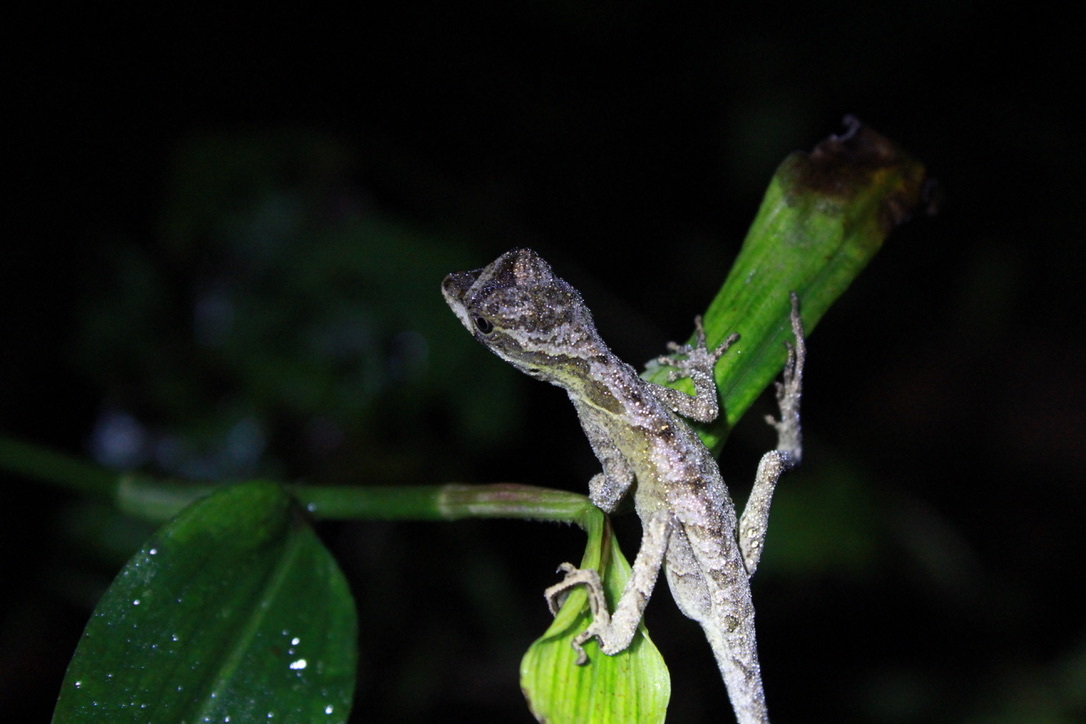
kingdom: Animalia
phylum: Chordata
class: Squamata
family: Dactyloidae
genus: Anolis
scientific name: Anolis planiceps
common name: Goldenscale anole
